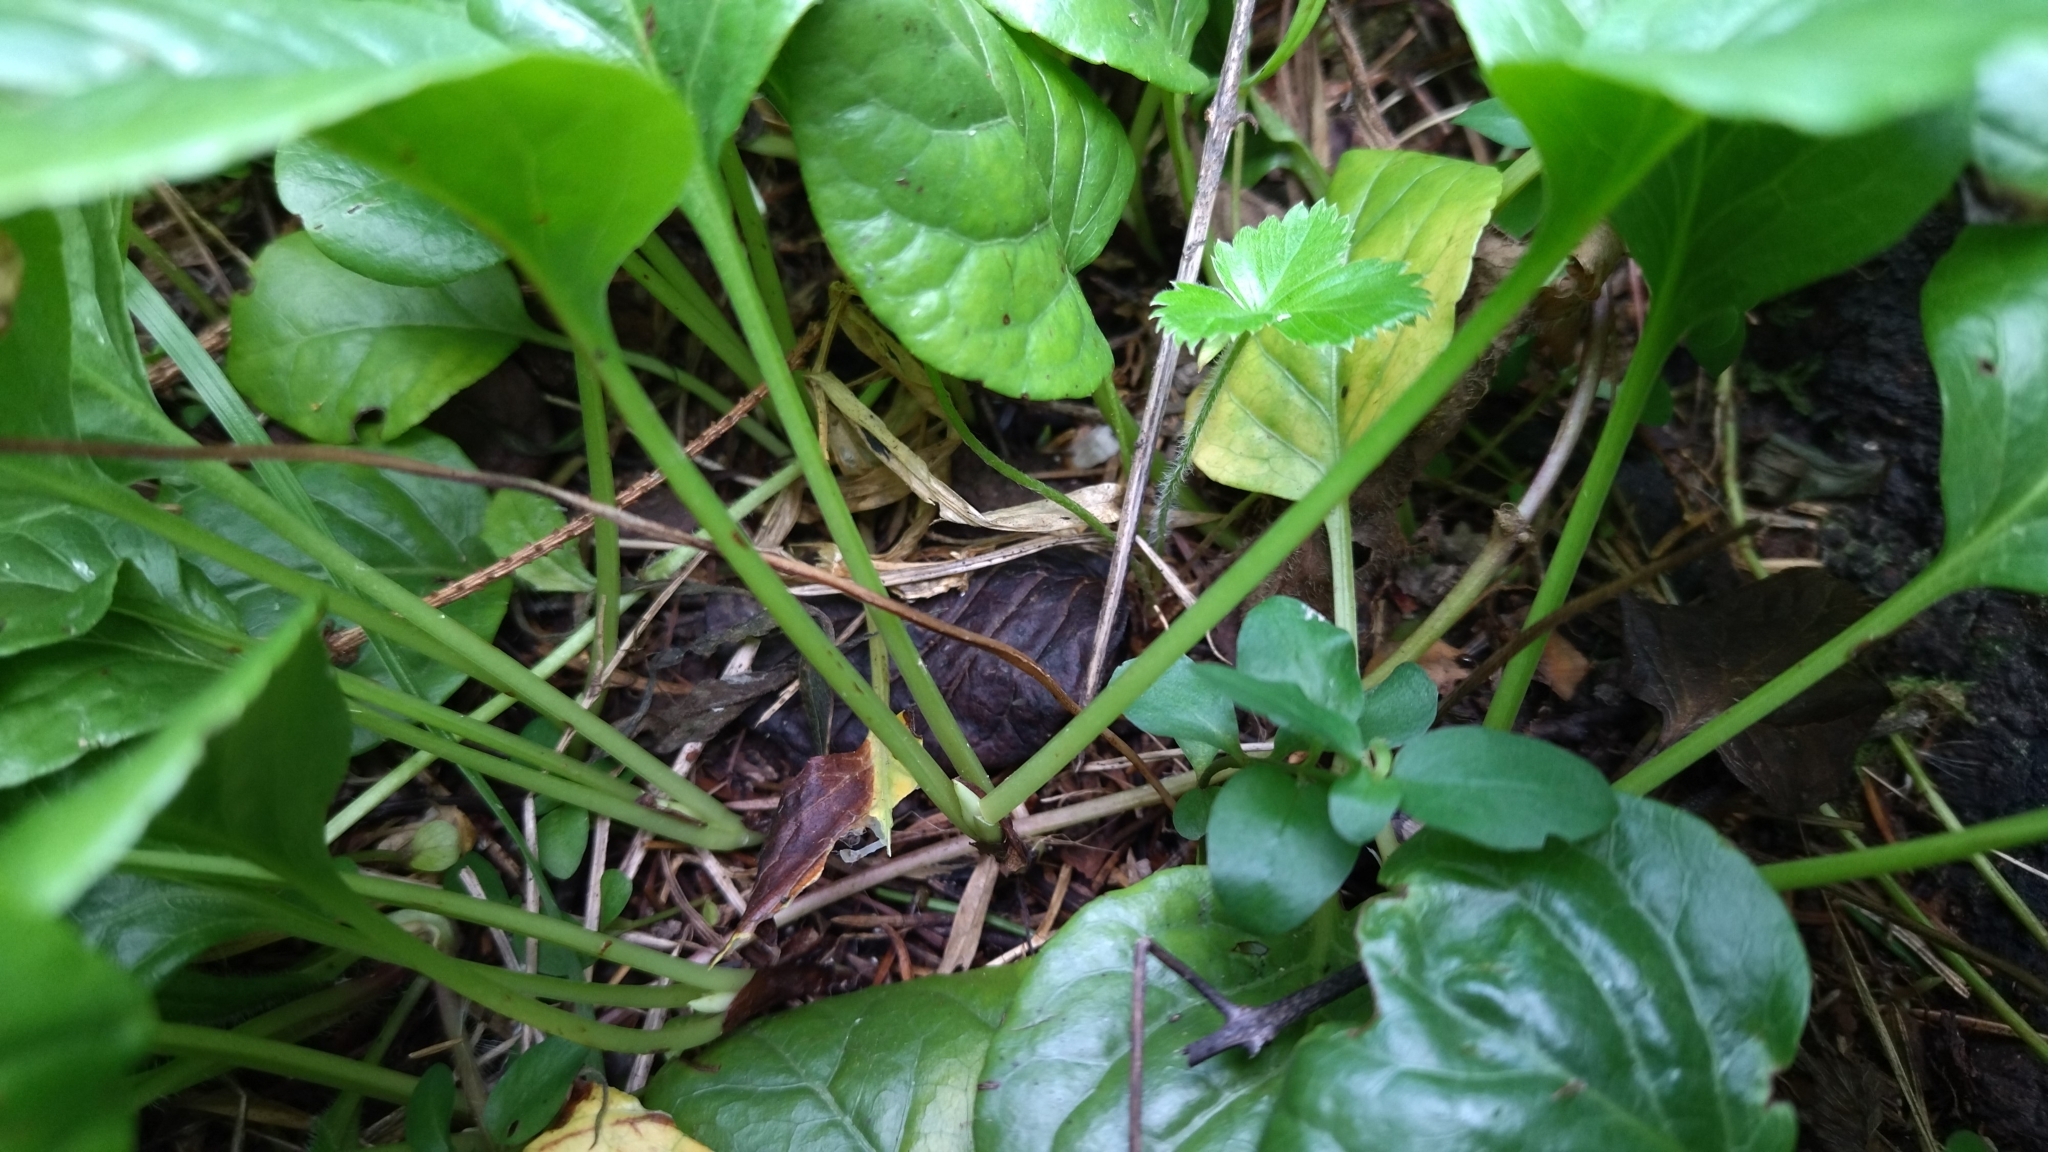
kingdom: Plantae
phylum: Tracheophyta
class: Magnoliopsida
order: Ericales
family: Ericaceae
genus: Pyrola
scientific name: Pyrola rotundifolia
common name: Round-leaved wintergreen
